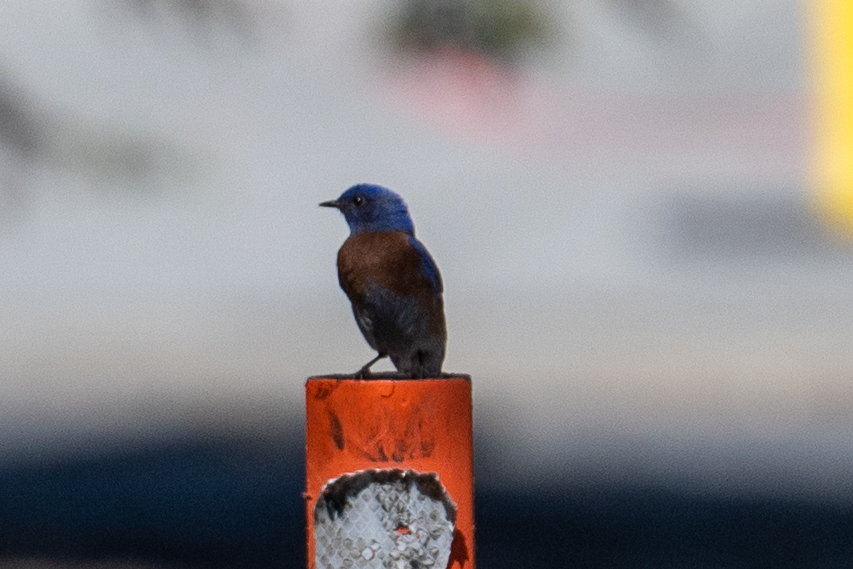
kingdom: Animalia
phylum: Chordata
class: Aves
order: Passeriformes
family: Turdidae
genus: Sialia
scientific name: Sialia mexicana
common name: Western bluebird
